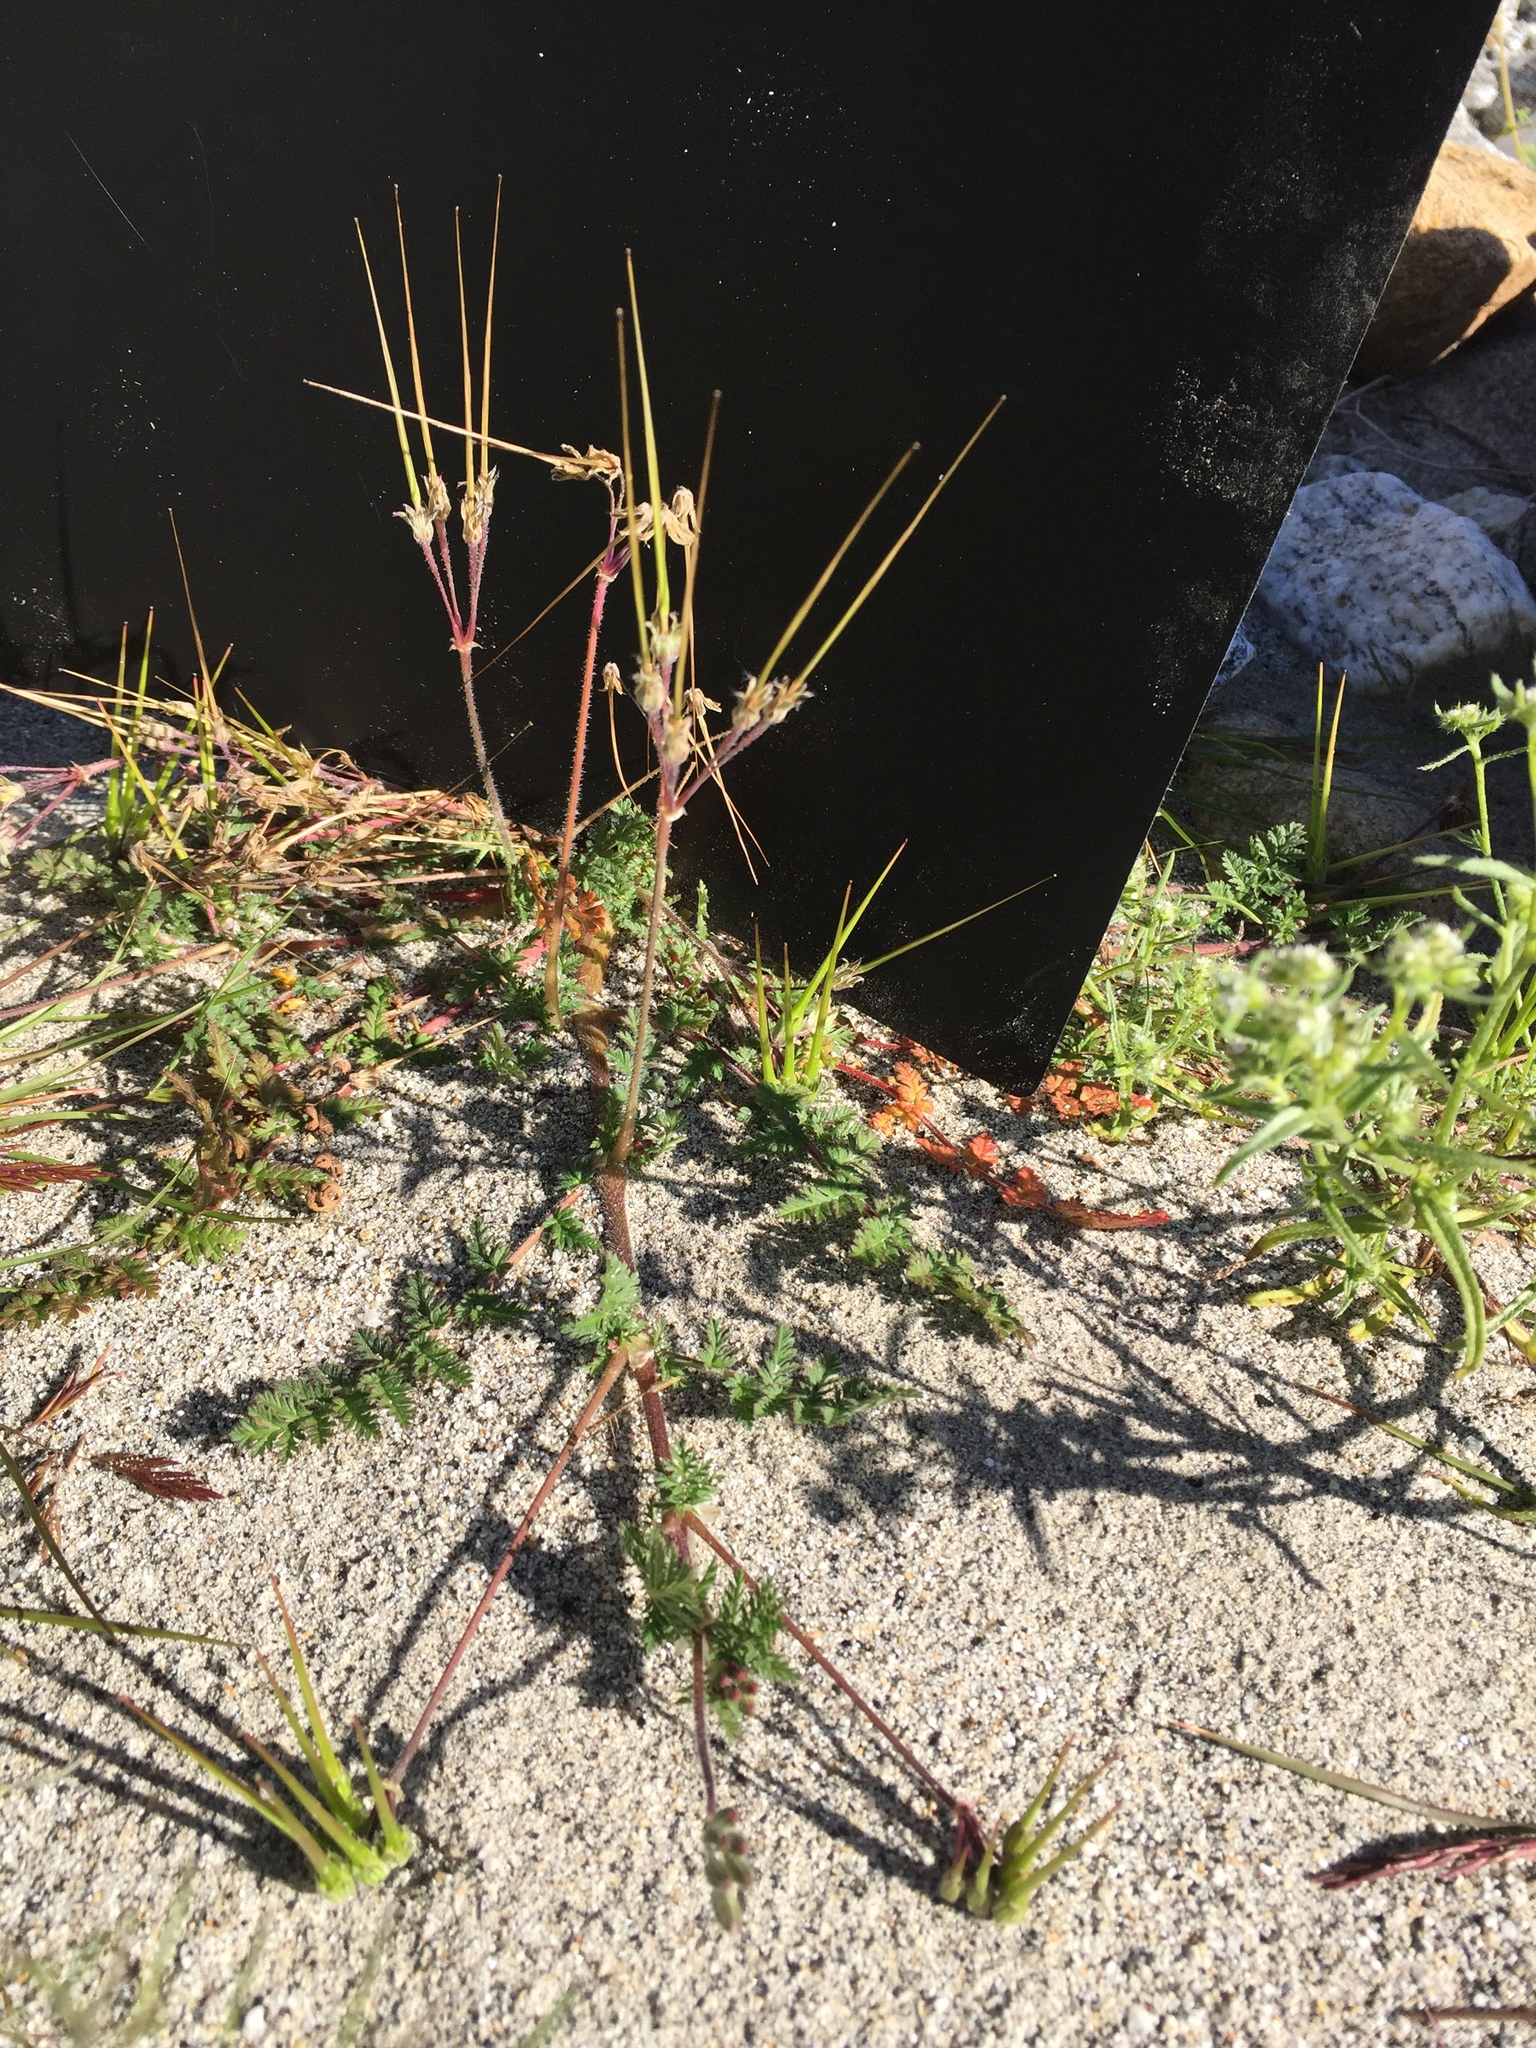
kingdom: Plantae
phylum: Tracheophyta
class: Magnoliopsida
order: Geraniales
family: Geraniaceae
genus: Erodium
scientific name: Erodium cicutarium
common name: Common stork's-bill
